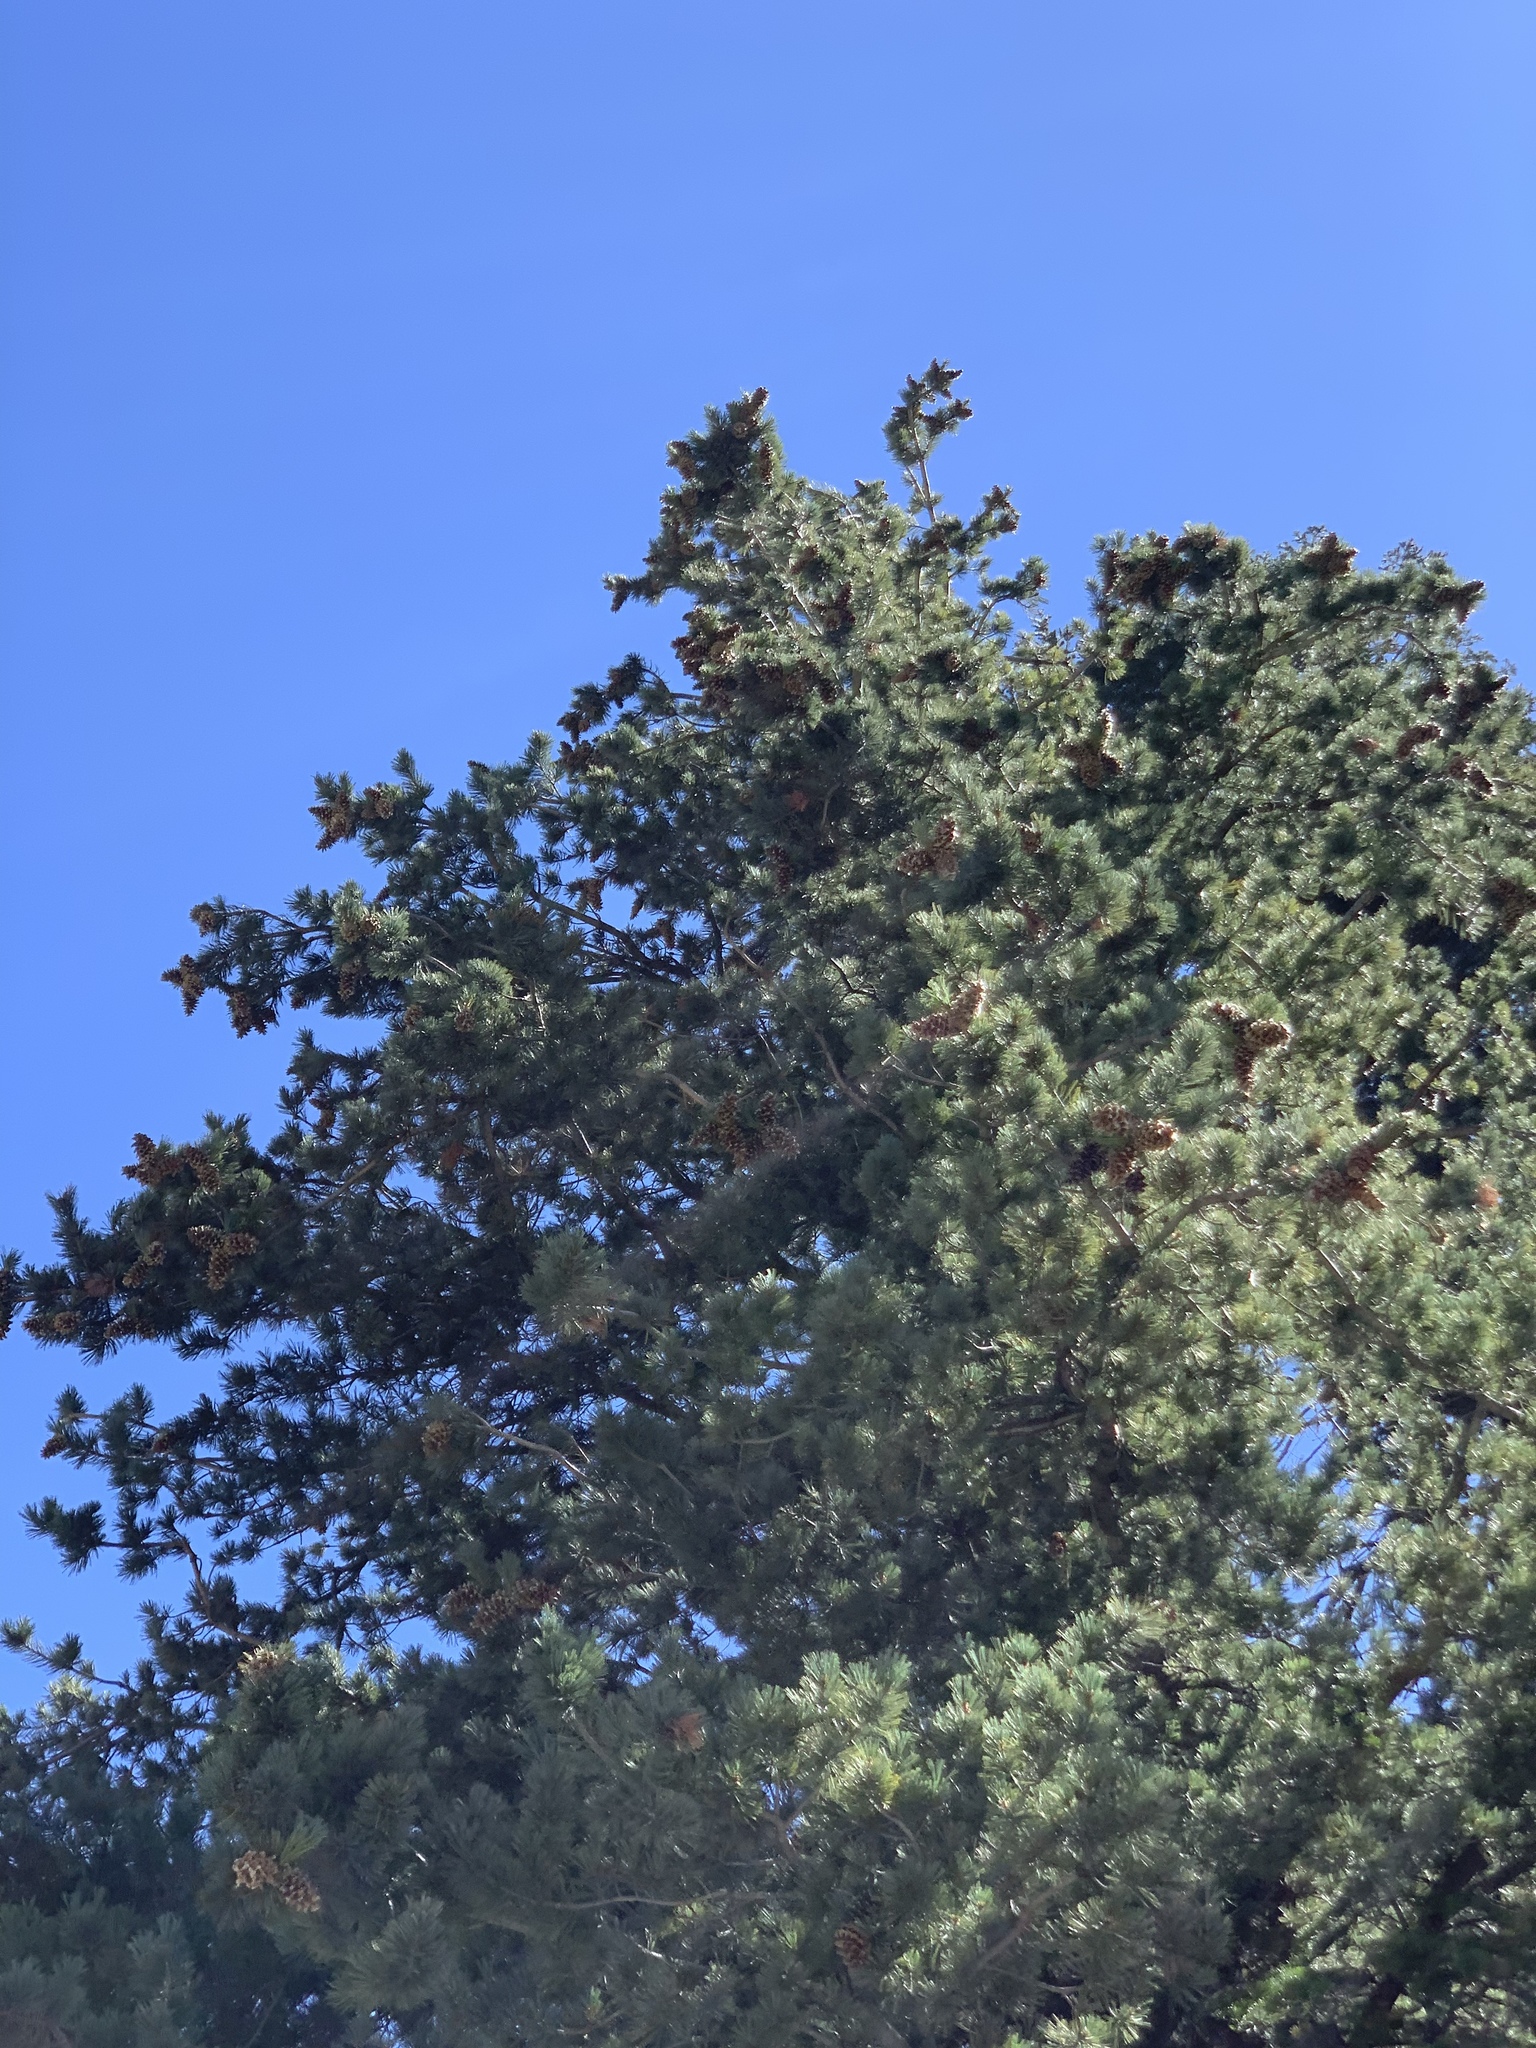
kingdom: Plantae
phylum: Tracheophyta
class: Pinopsida
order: Pinales
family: Pinaceae
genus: Pinus
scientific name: Pinus strobiformis
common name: Southwestern white pine
